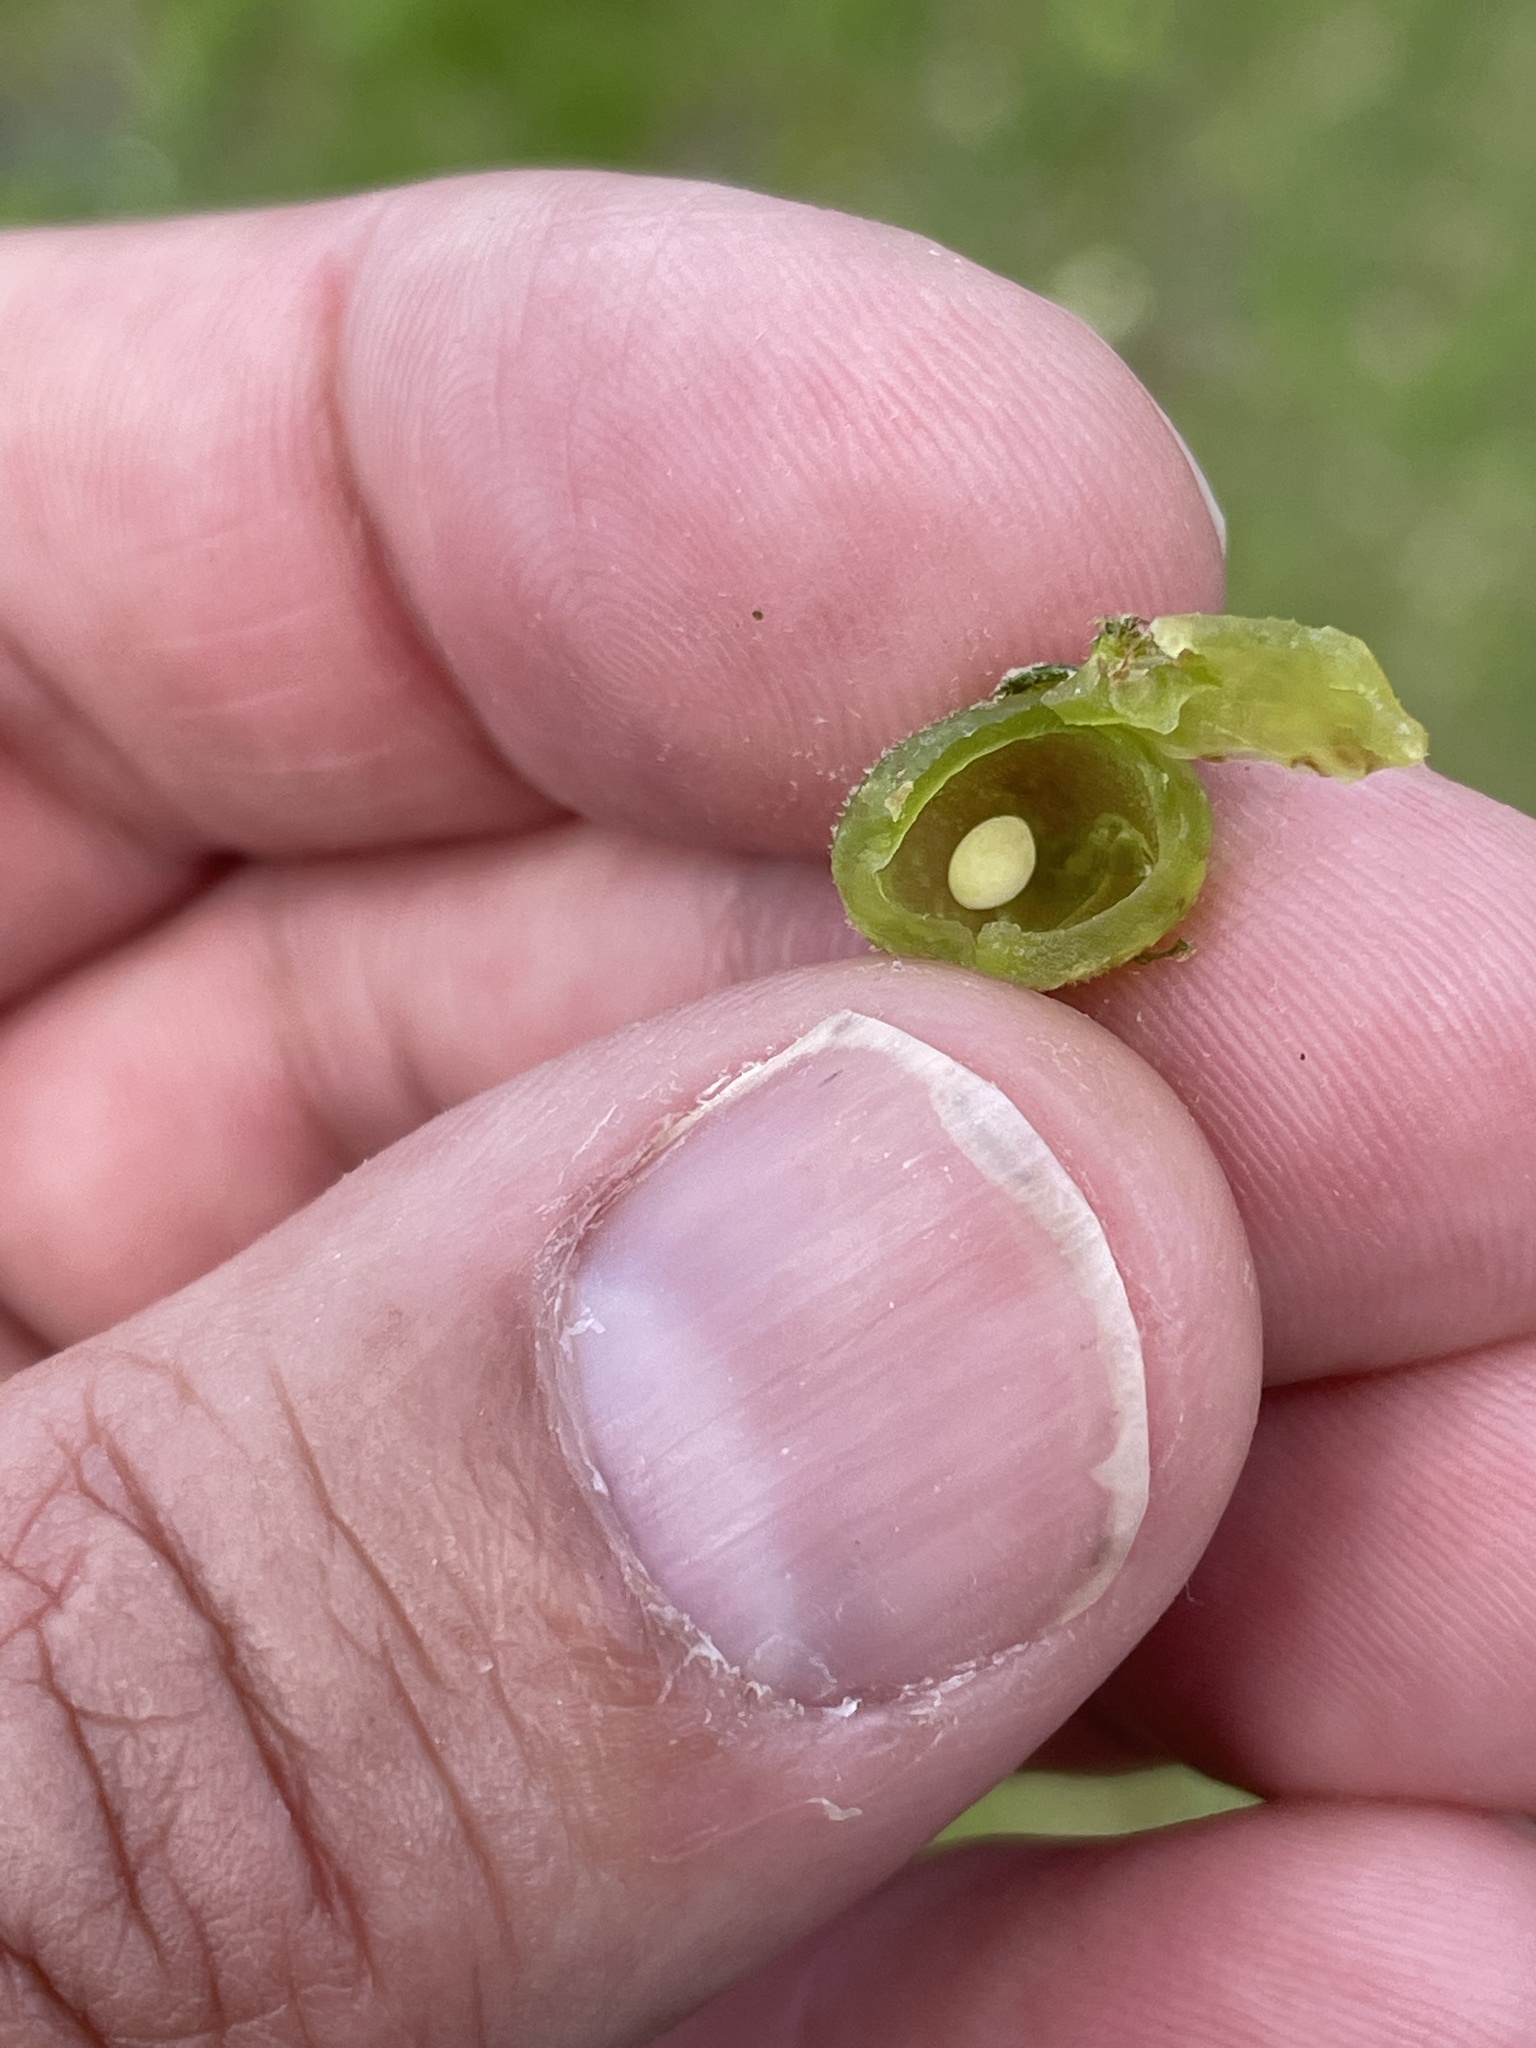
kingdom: Animalia
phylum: Arthropoda
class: Insecta
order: Hymenoptera
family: Cynipidae
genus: Dryocosmus
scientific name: Dryocosmus quercuspalustris
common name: Succulent oak gall wasp
